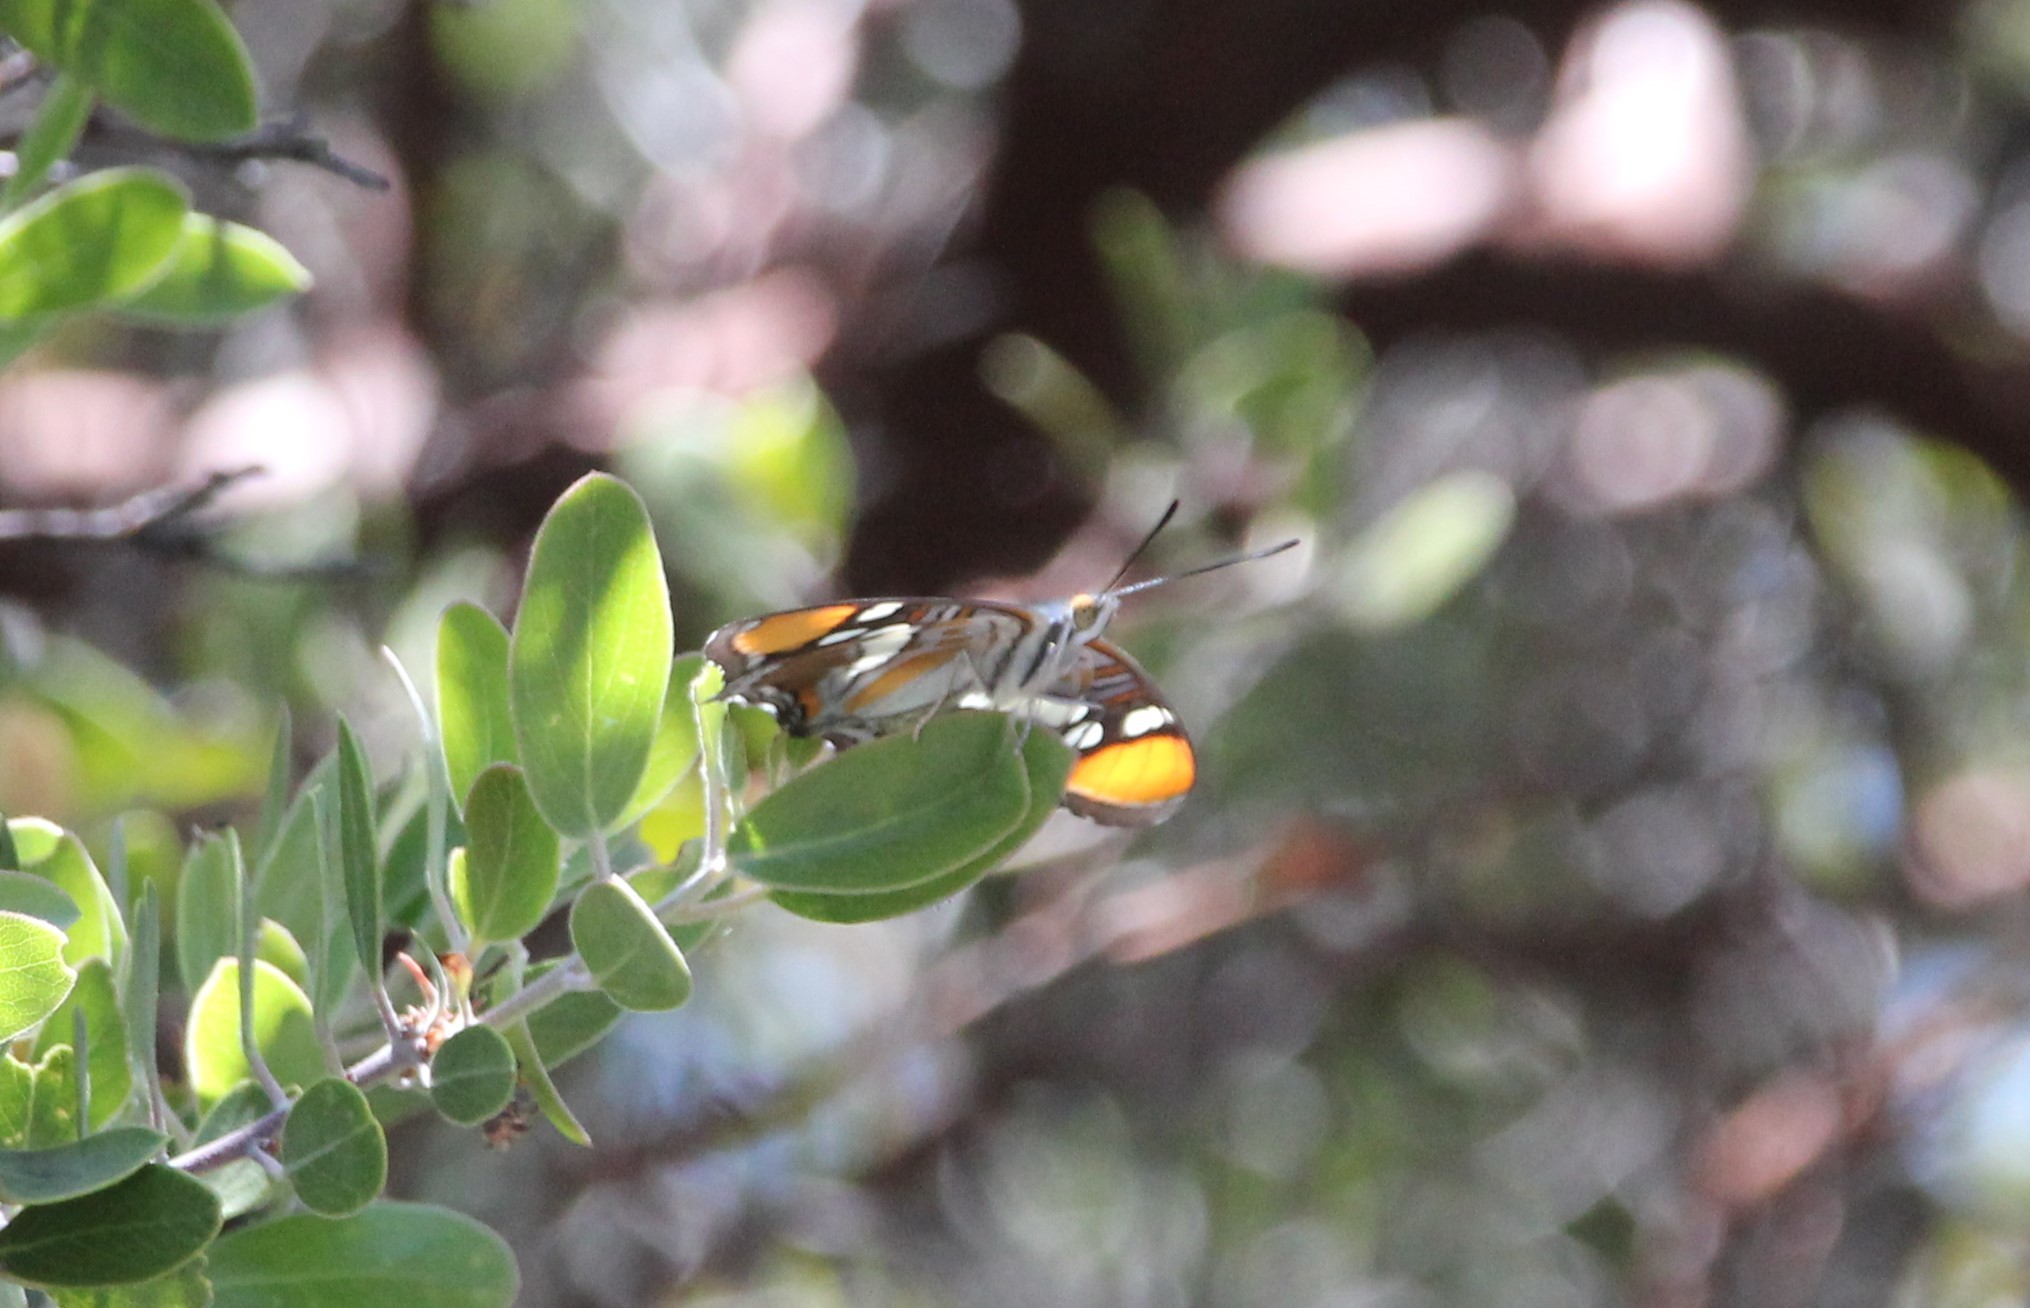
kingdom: Animalia
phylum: Arthropoda
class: Insecta
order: Lepidoptera
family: Nymphalidae
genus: Limenitis
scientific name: Limenitis bredowii
